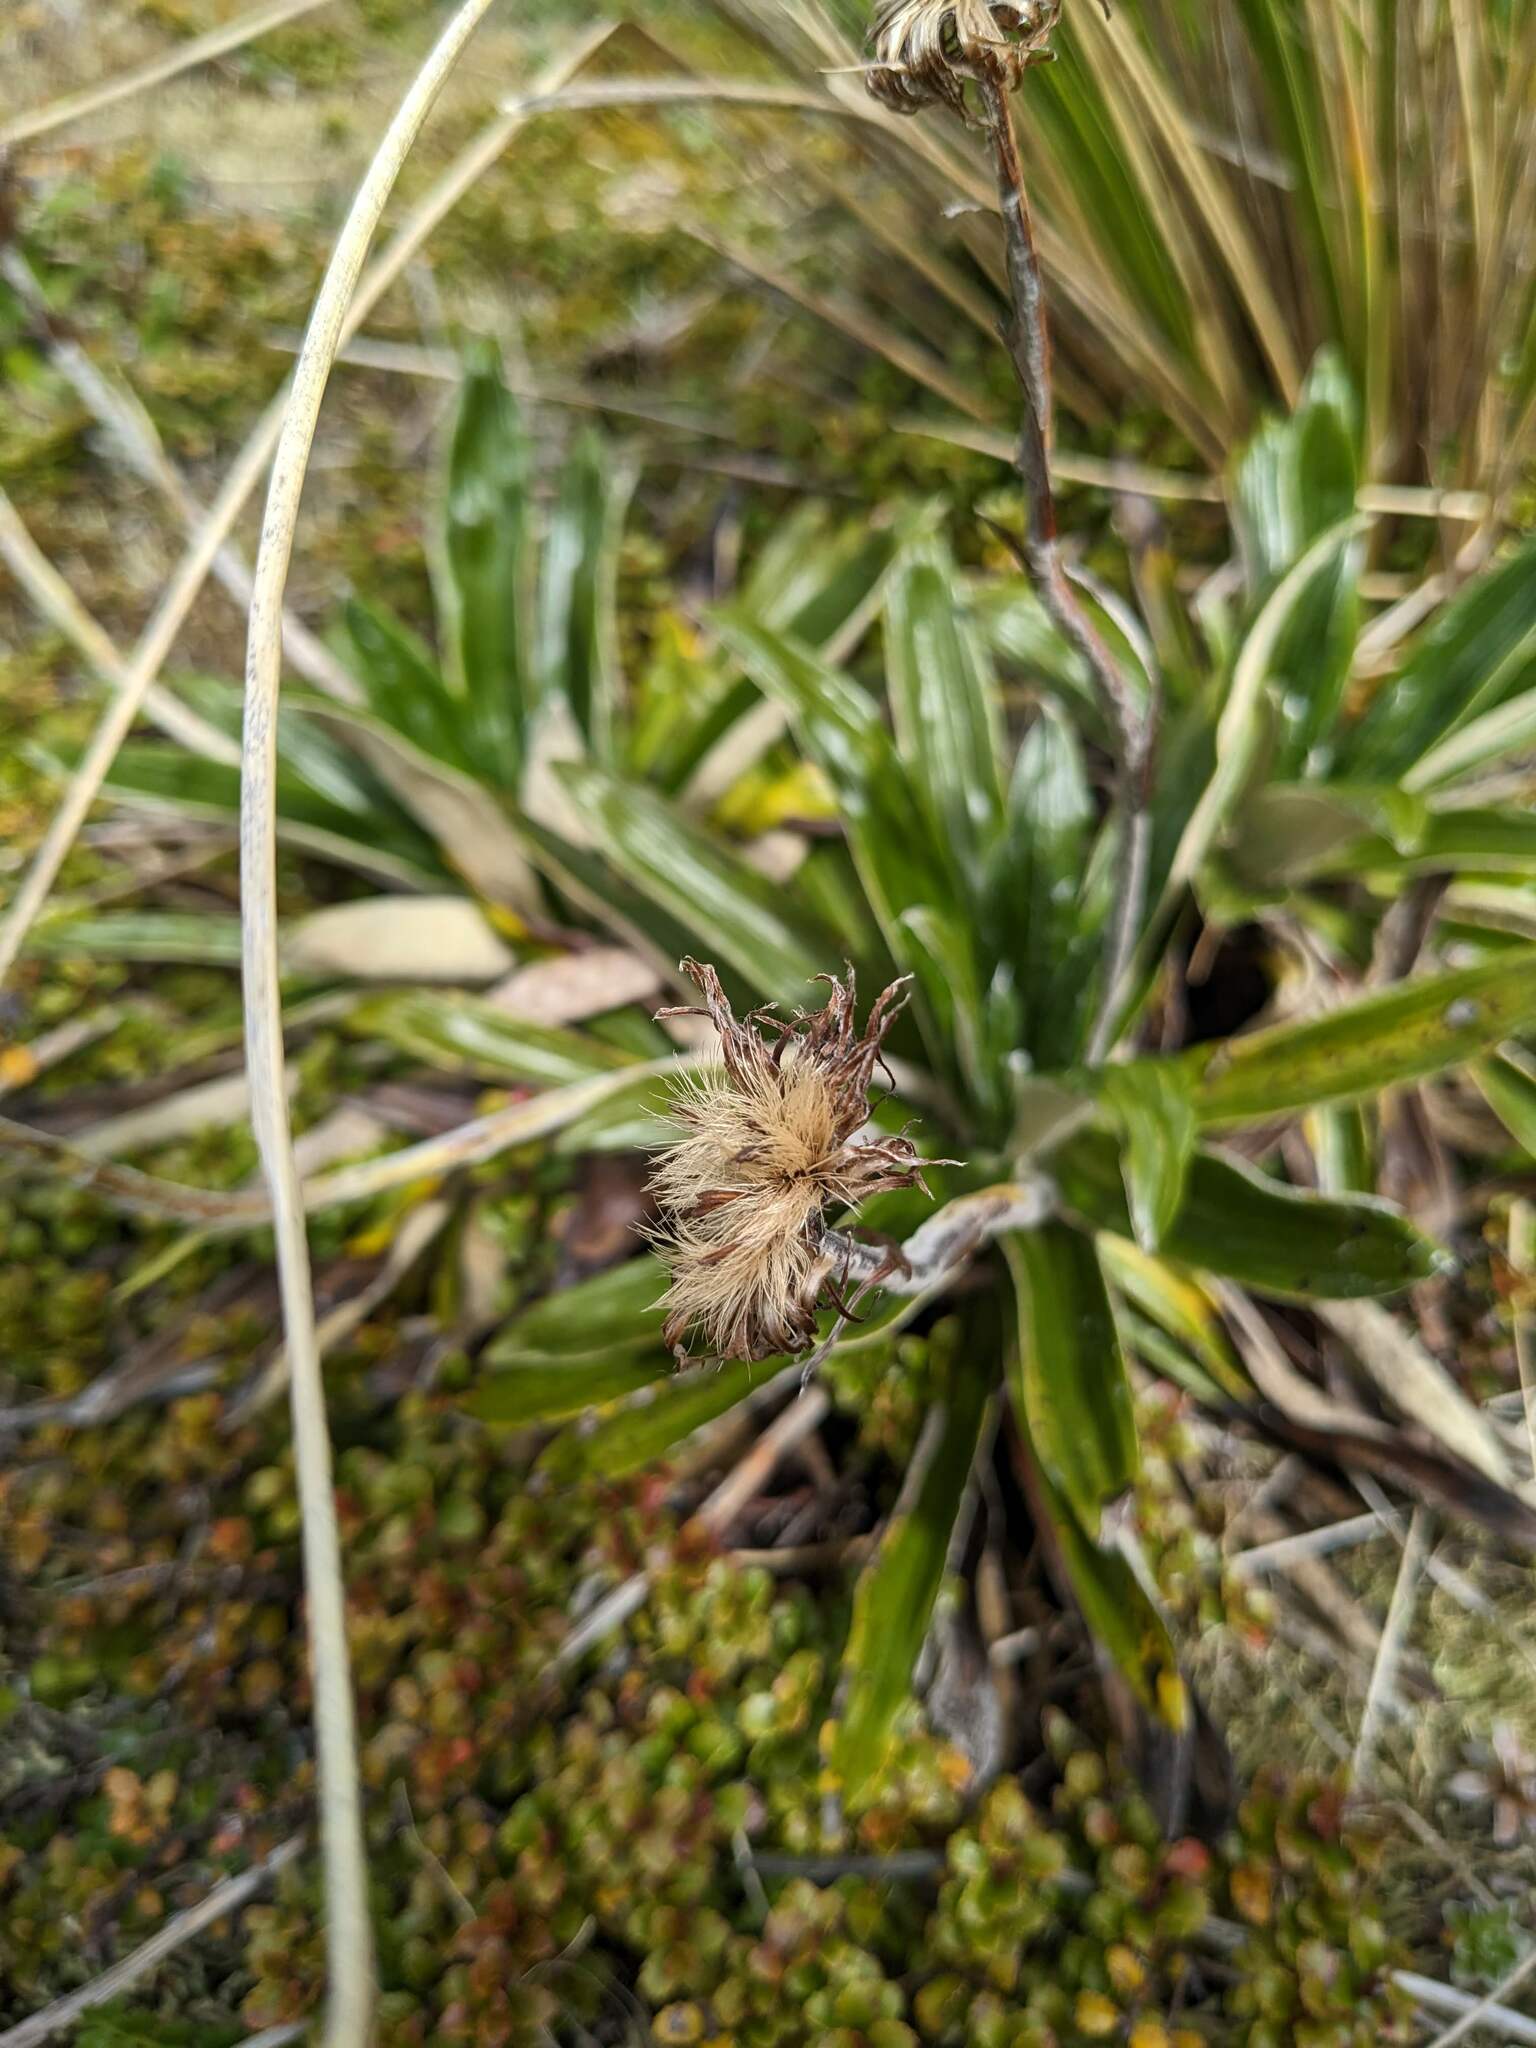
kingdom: Plantae
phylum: Tracheophyta
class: Magnoliopsida
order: Asterales
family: Asteraceae
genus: Celmisia
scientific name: Celmisia spectabilis
